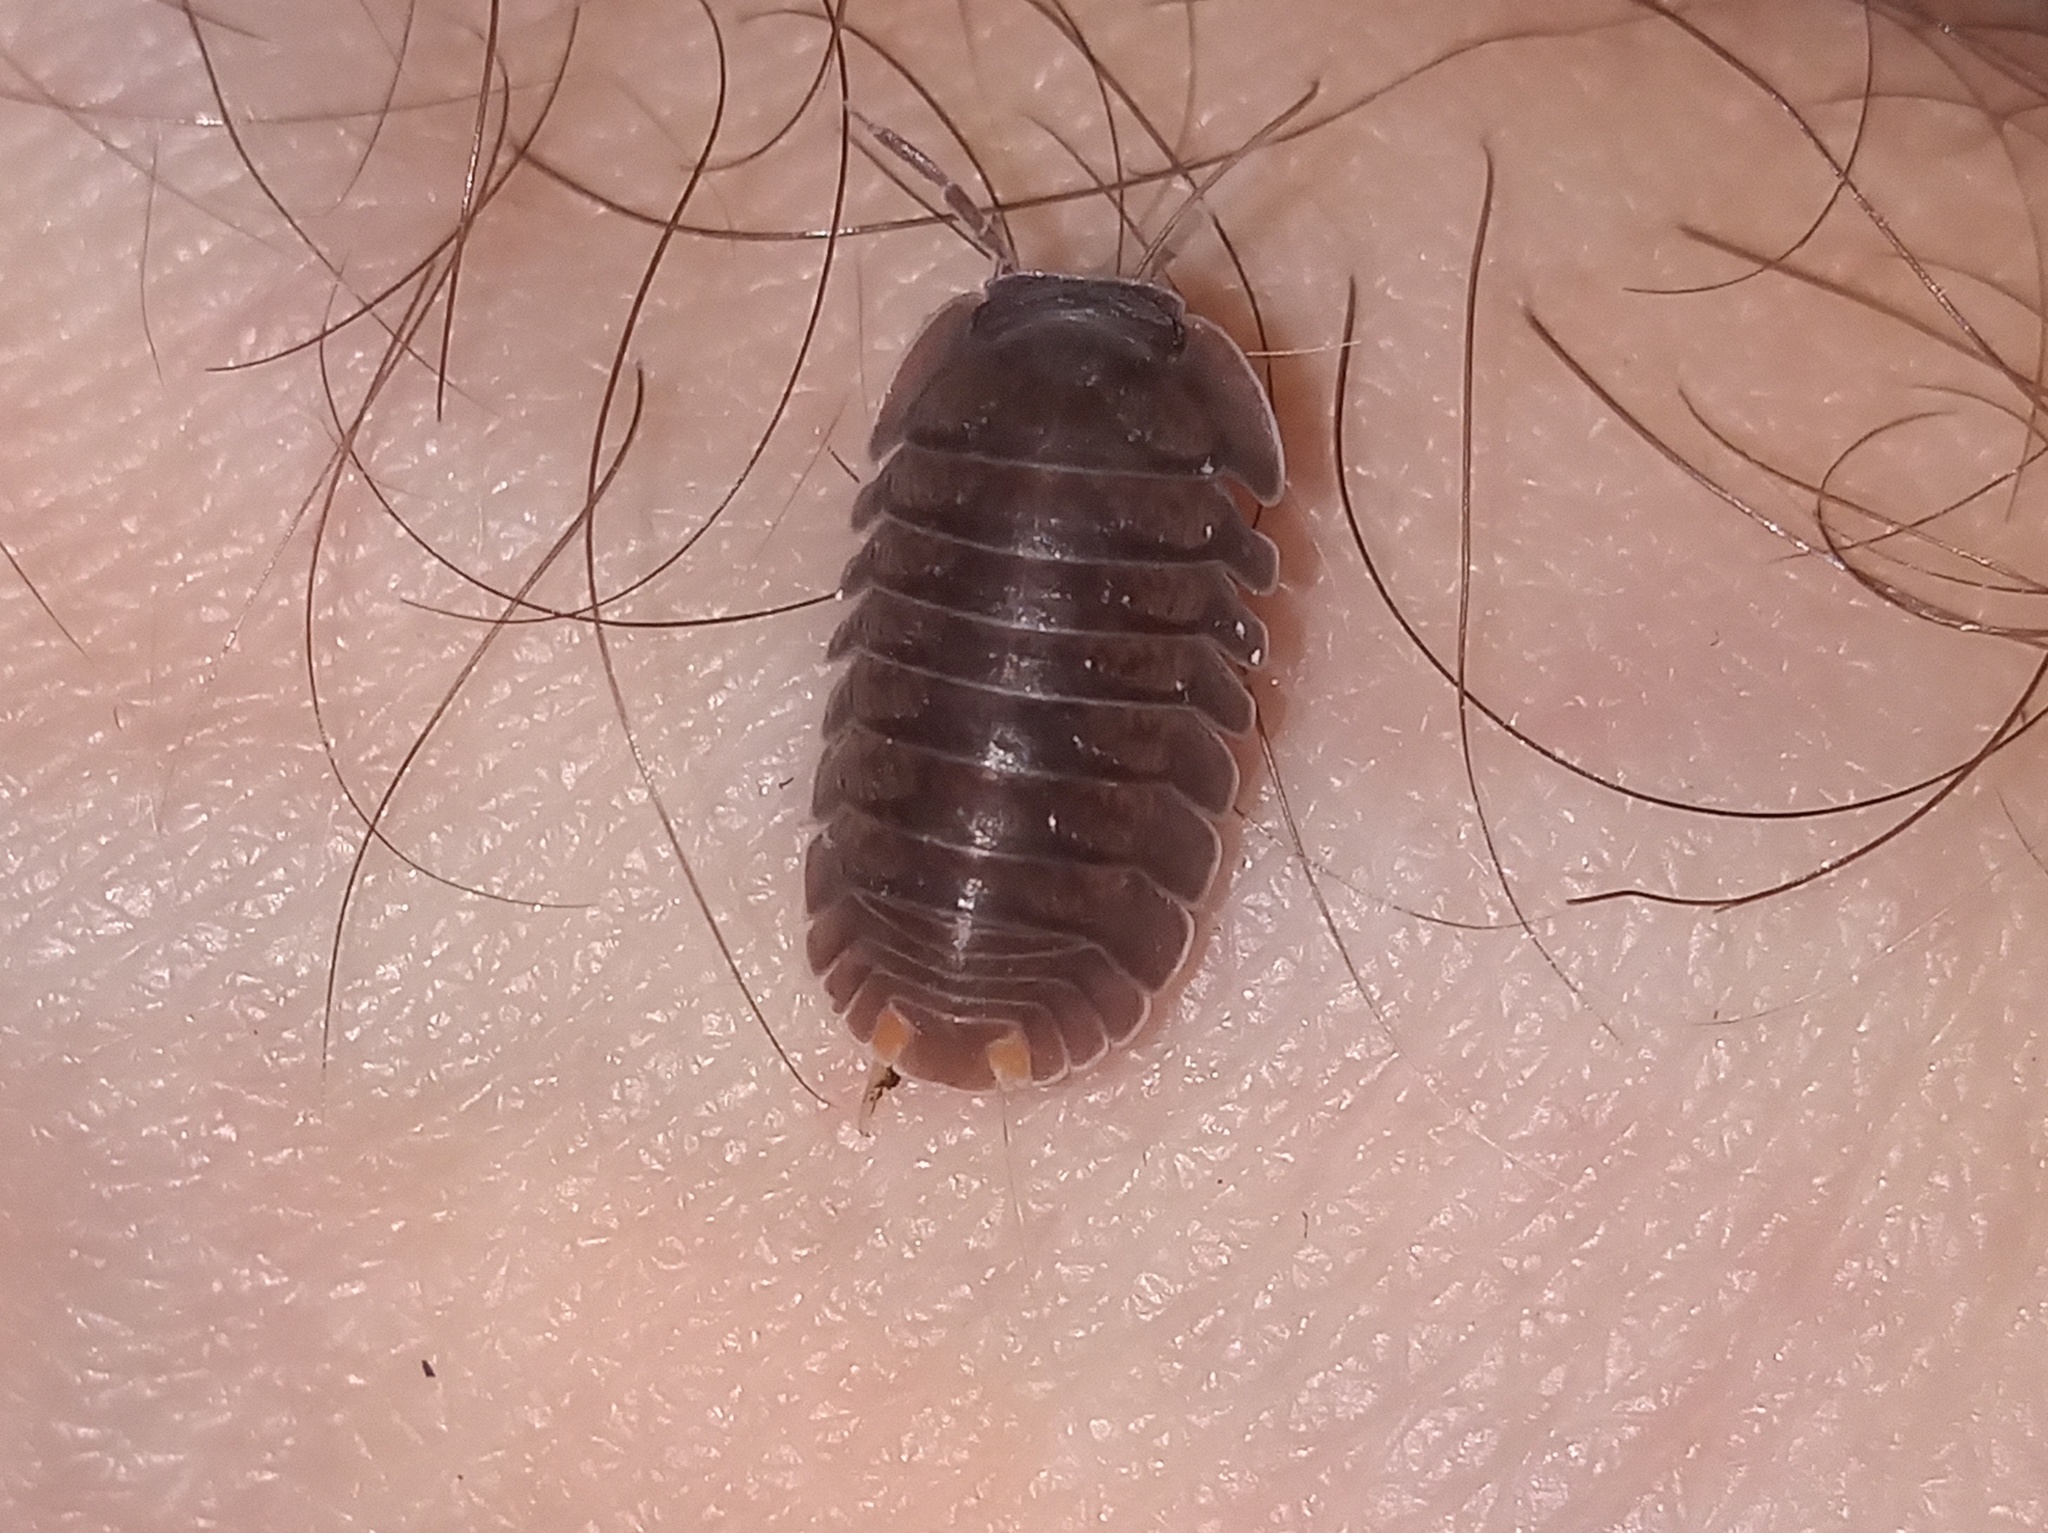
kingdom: Animalia
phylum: Arthropoda
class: Malacostraca
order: Isopoda
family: Armadillidae
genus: Cubaris
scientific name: Cubaris murina
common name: Pillbug
